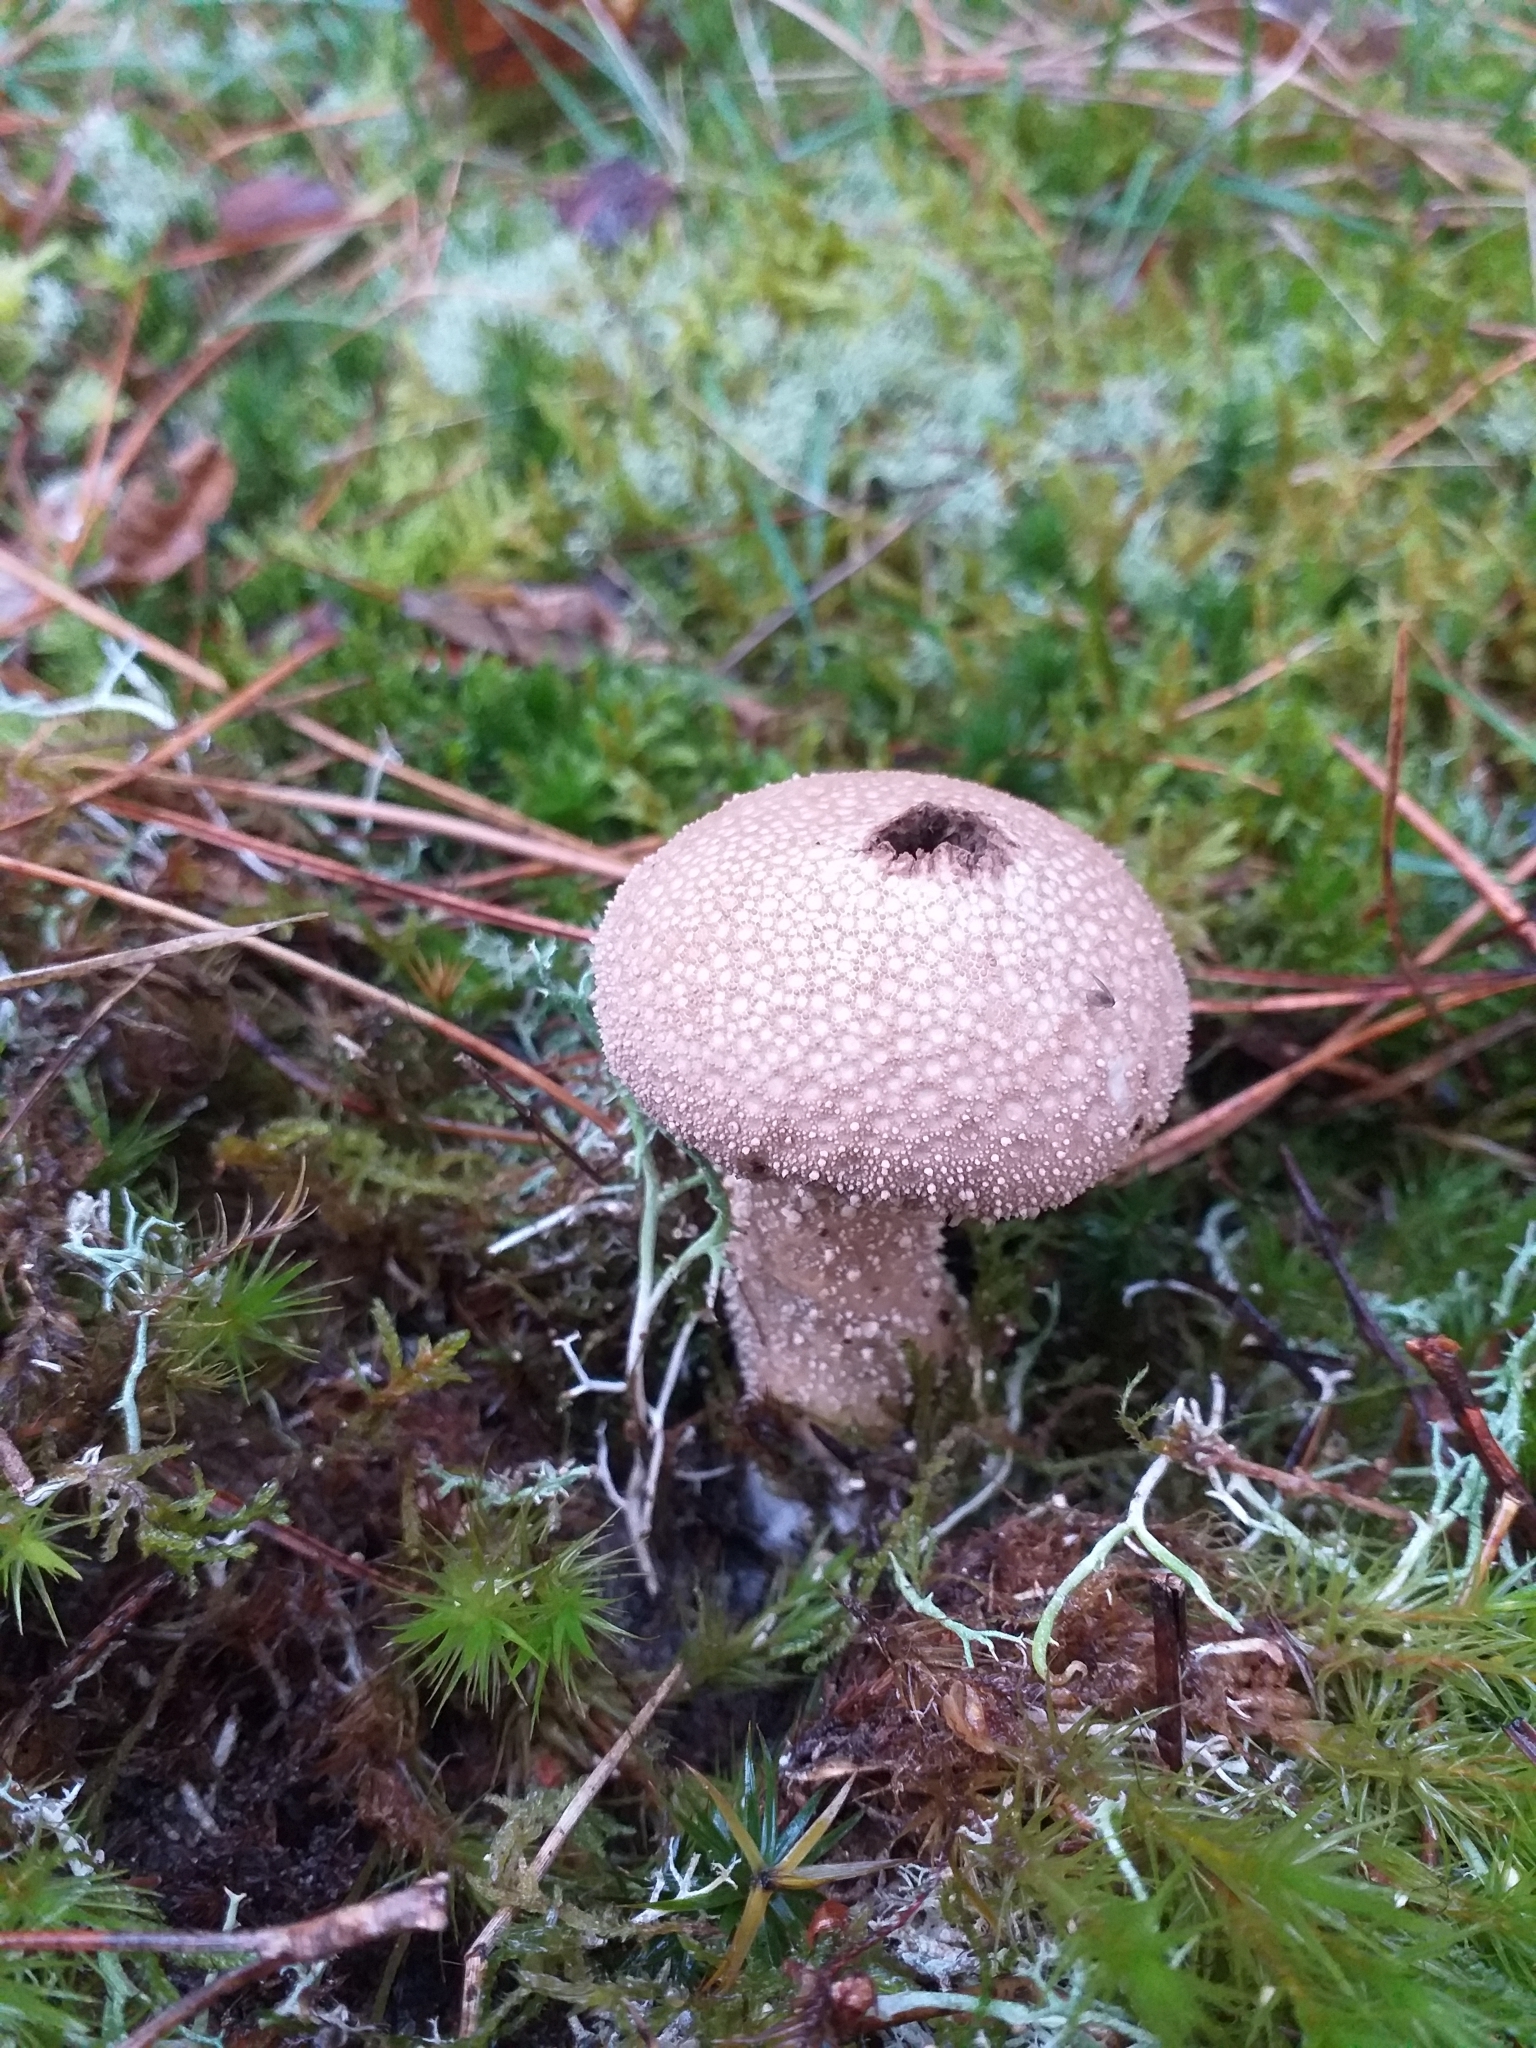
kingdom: Fungi
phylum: Basidiomycota
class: Agaricomycetes
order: Agaricales
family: Lycoperdaceae
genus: Lycoperdon
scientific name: Lycoperdon perlatum
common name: Common puffball
